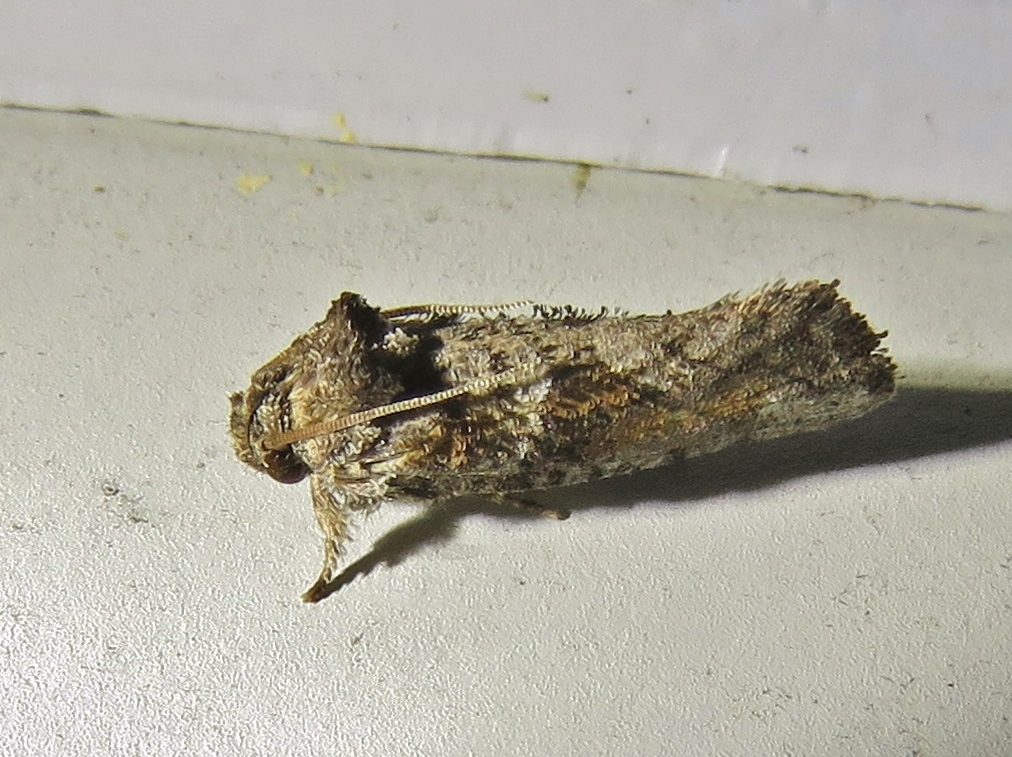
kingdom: Animalia
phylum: Arthropoda
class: Insecta
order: Lepidoptera
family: Tineidae
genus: Acrolophus
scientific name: Acrolophus piger
